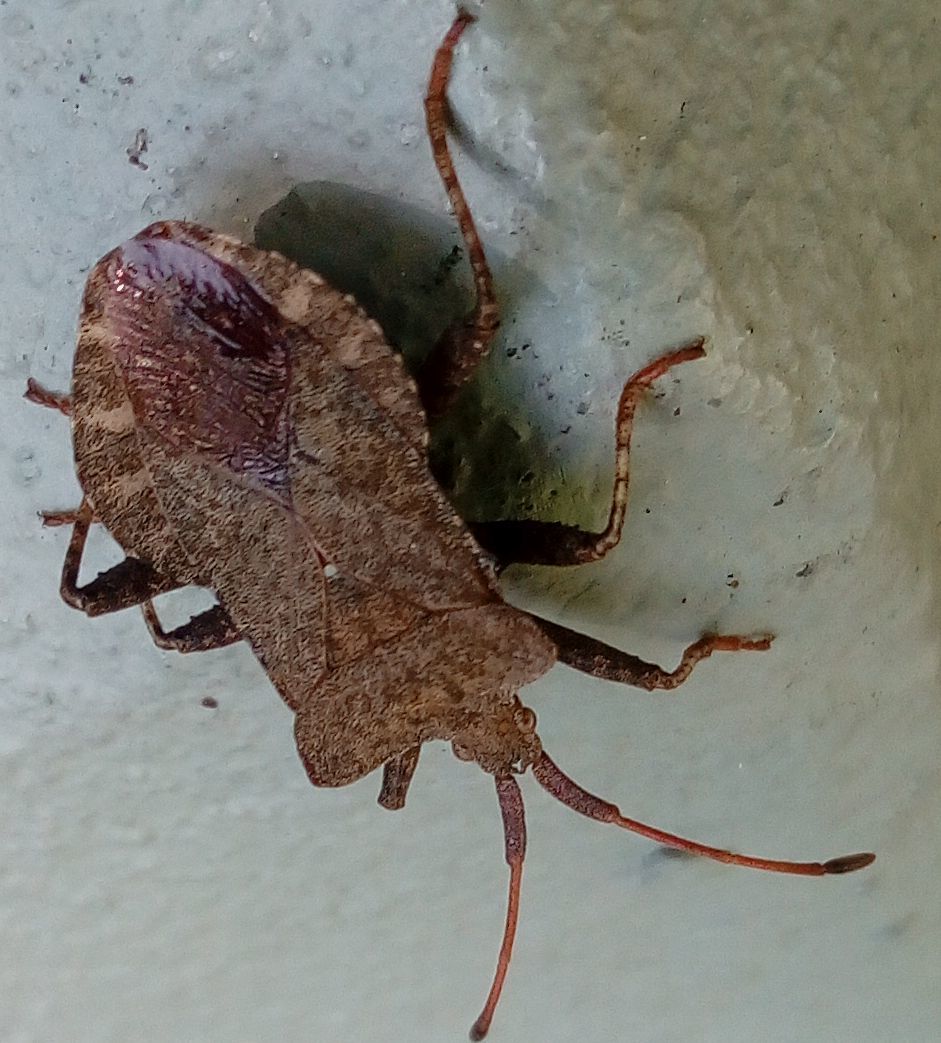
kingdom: Animalia
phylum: Arthropoda
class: Insecta
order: Hemiptera
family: Coreidae
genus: Coreus
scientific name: Coreus marginatus
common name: Dock bug
